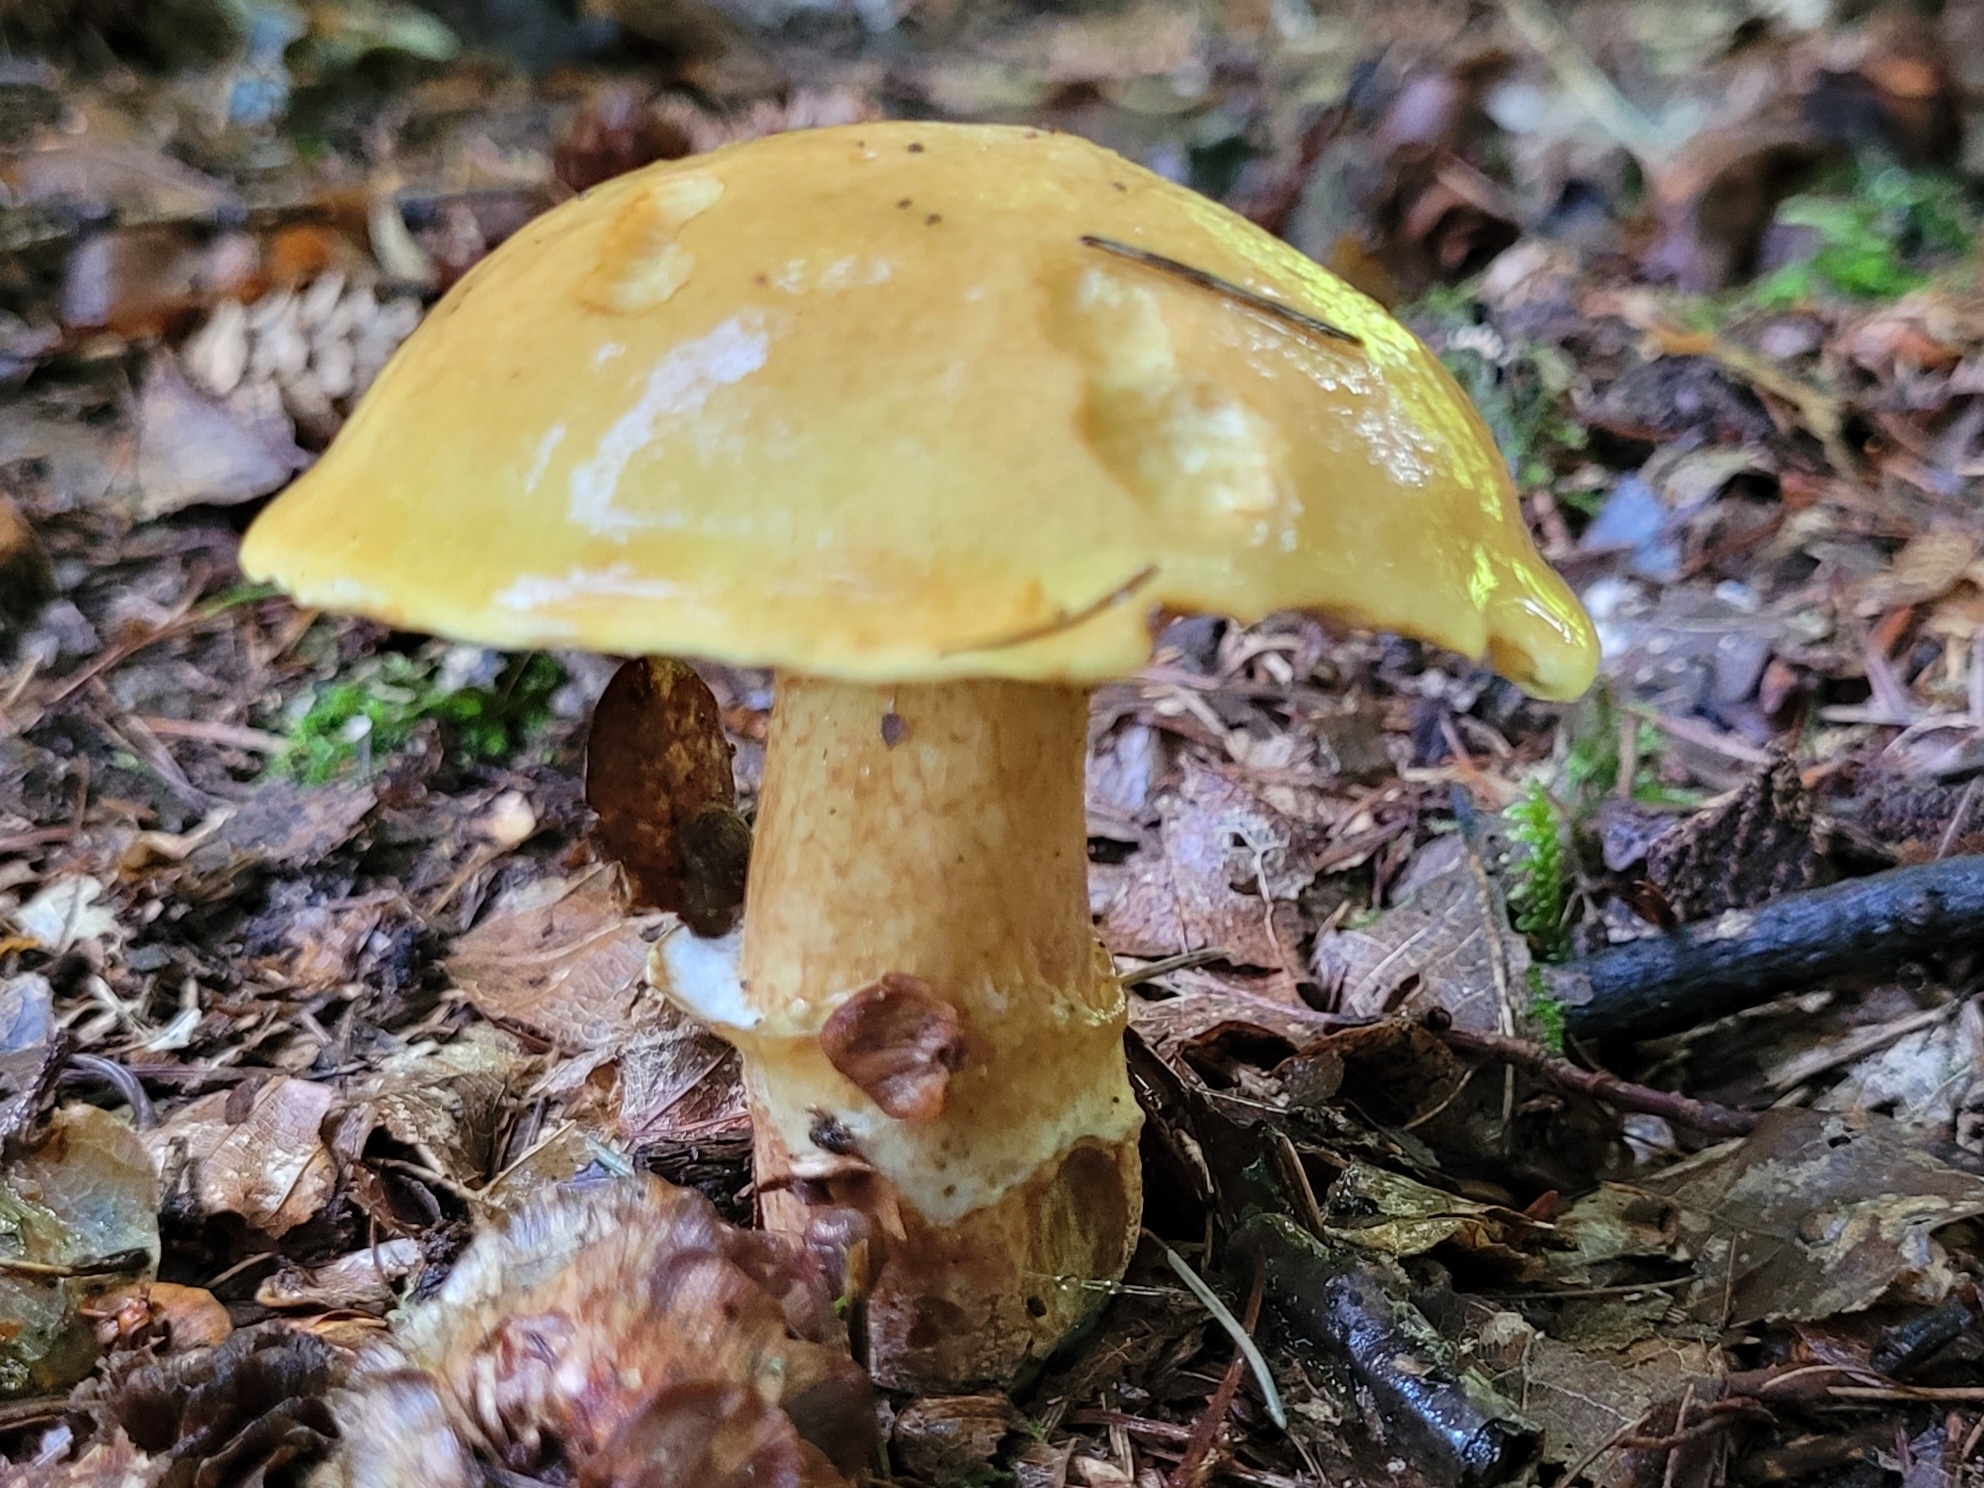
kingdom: Fungi
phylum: Basidiomycota
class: Agaricomycetes
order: Boletales
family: Suillaceae
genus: Suillus
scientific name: Suillus grevillei
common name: Larch bolete
